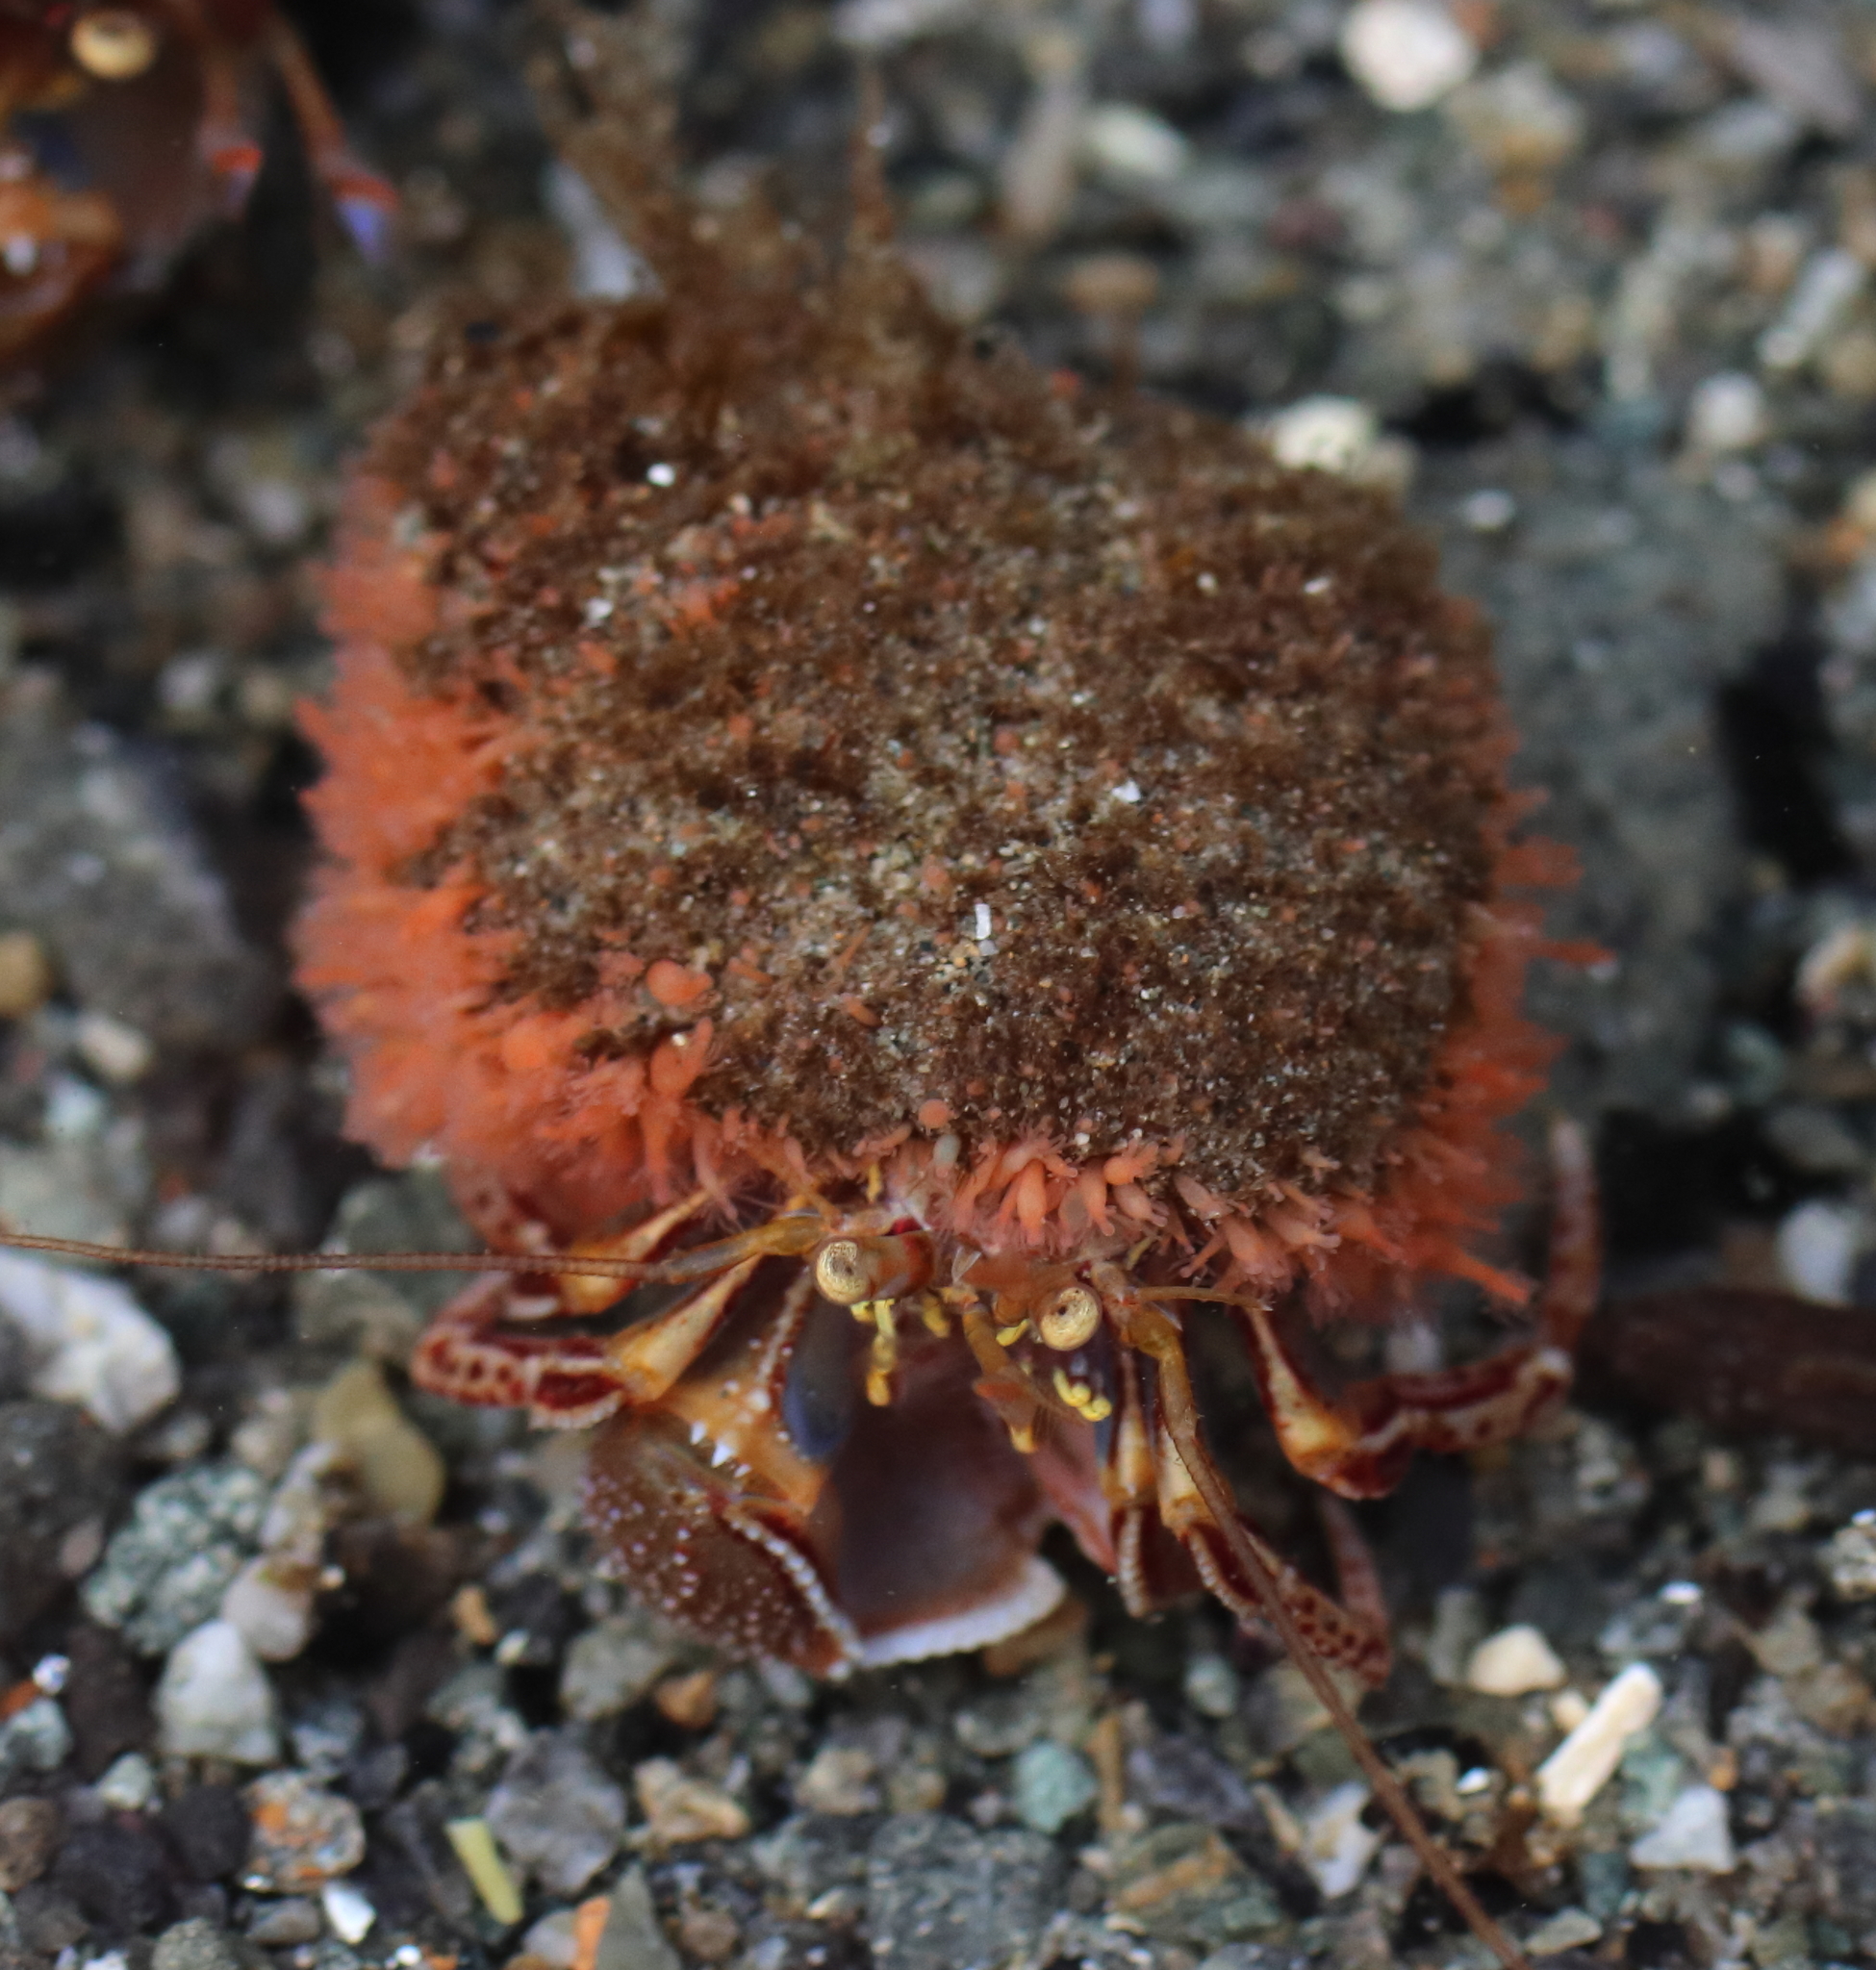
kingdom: Animalia
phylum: Arthropoda
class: Malacostraca
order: Decapoda
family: Paguridae
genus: Elassochirus
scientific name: Elassochirus tenuimanus
